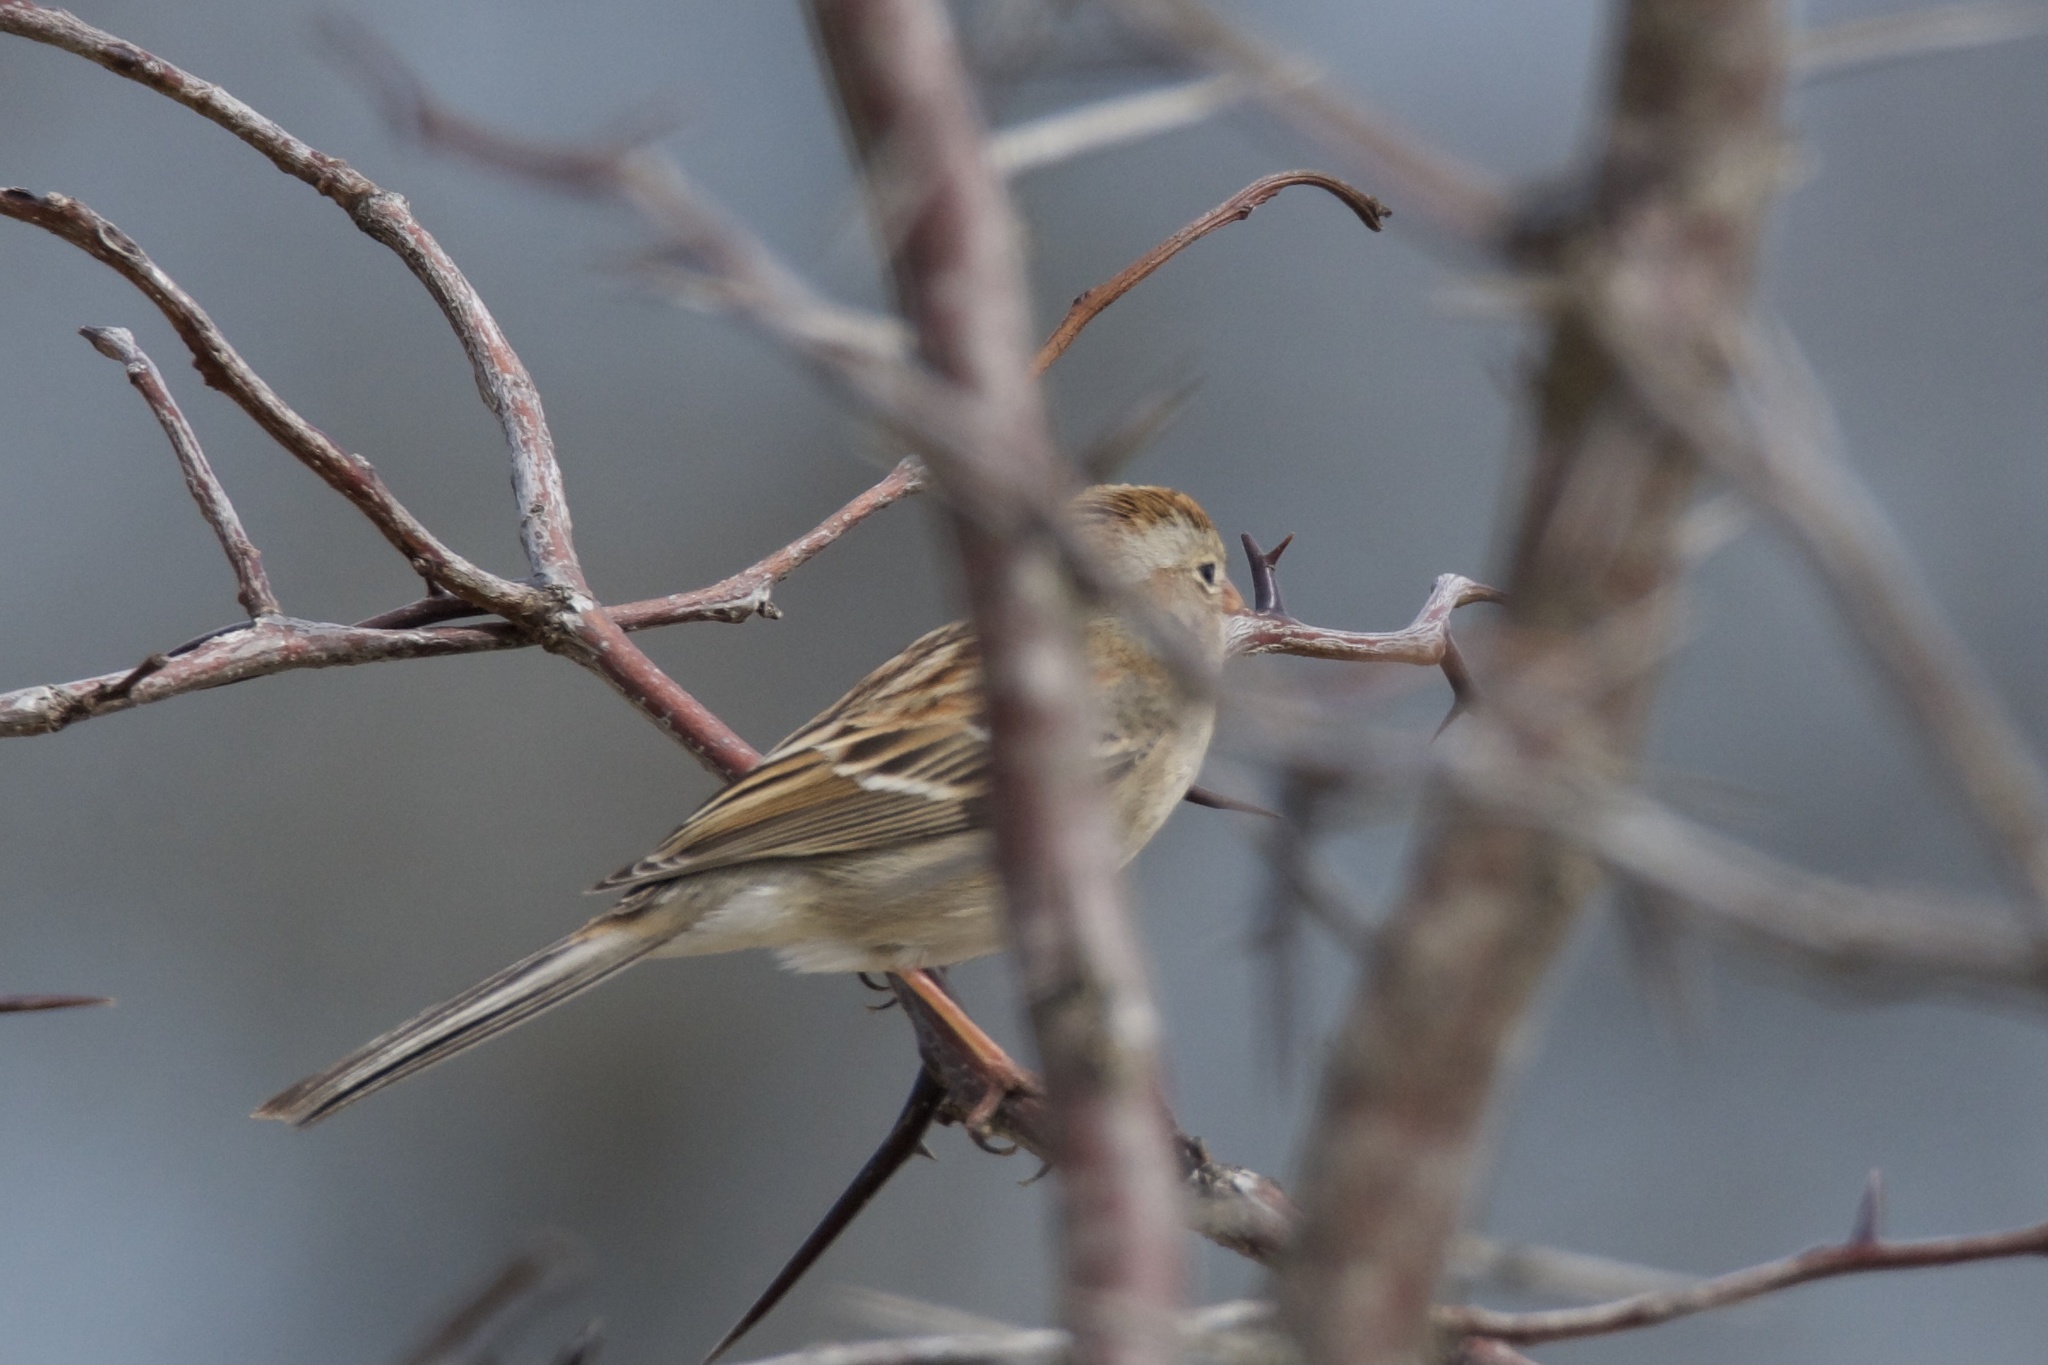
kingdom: Animalia
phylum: Chordata
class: Aves
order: Passeriformes
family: Passerellidae
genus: Spizella
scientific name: Spizella pusilla
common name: Field sparrow
